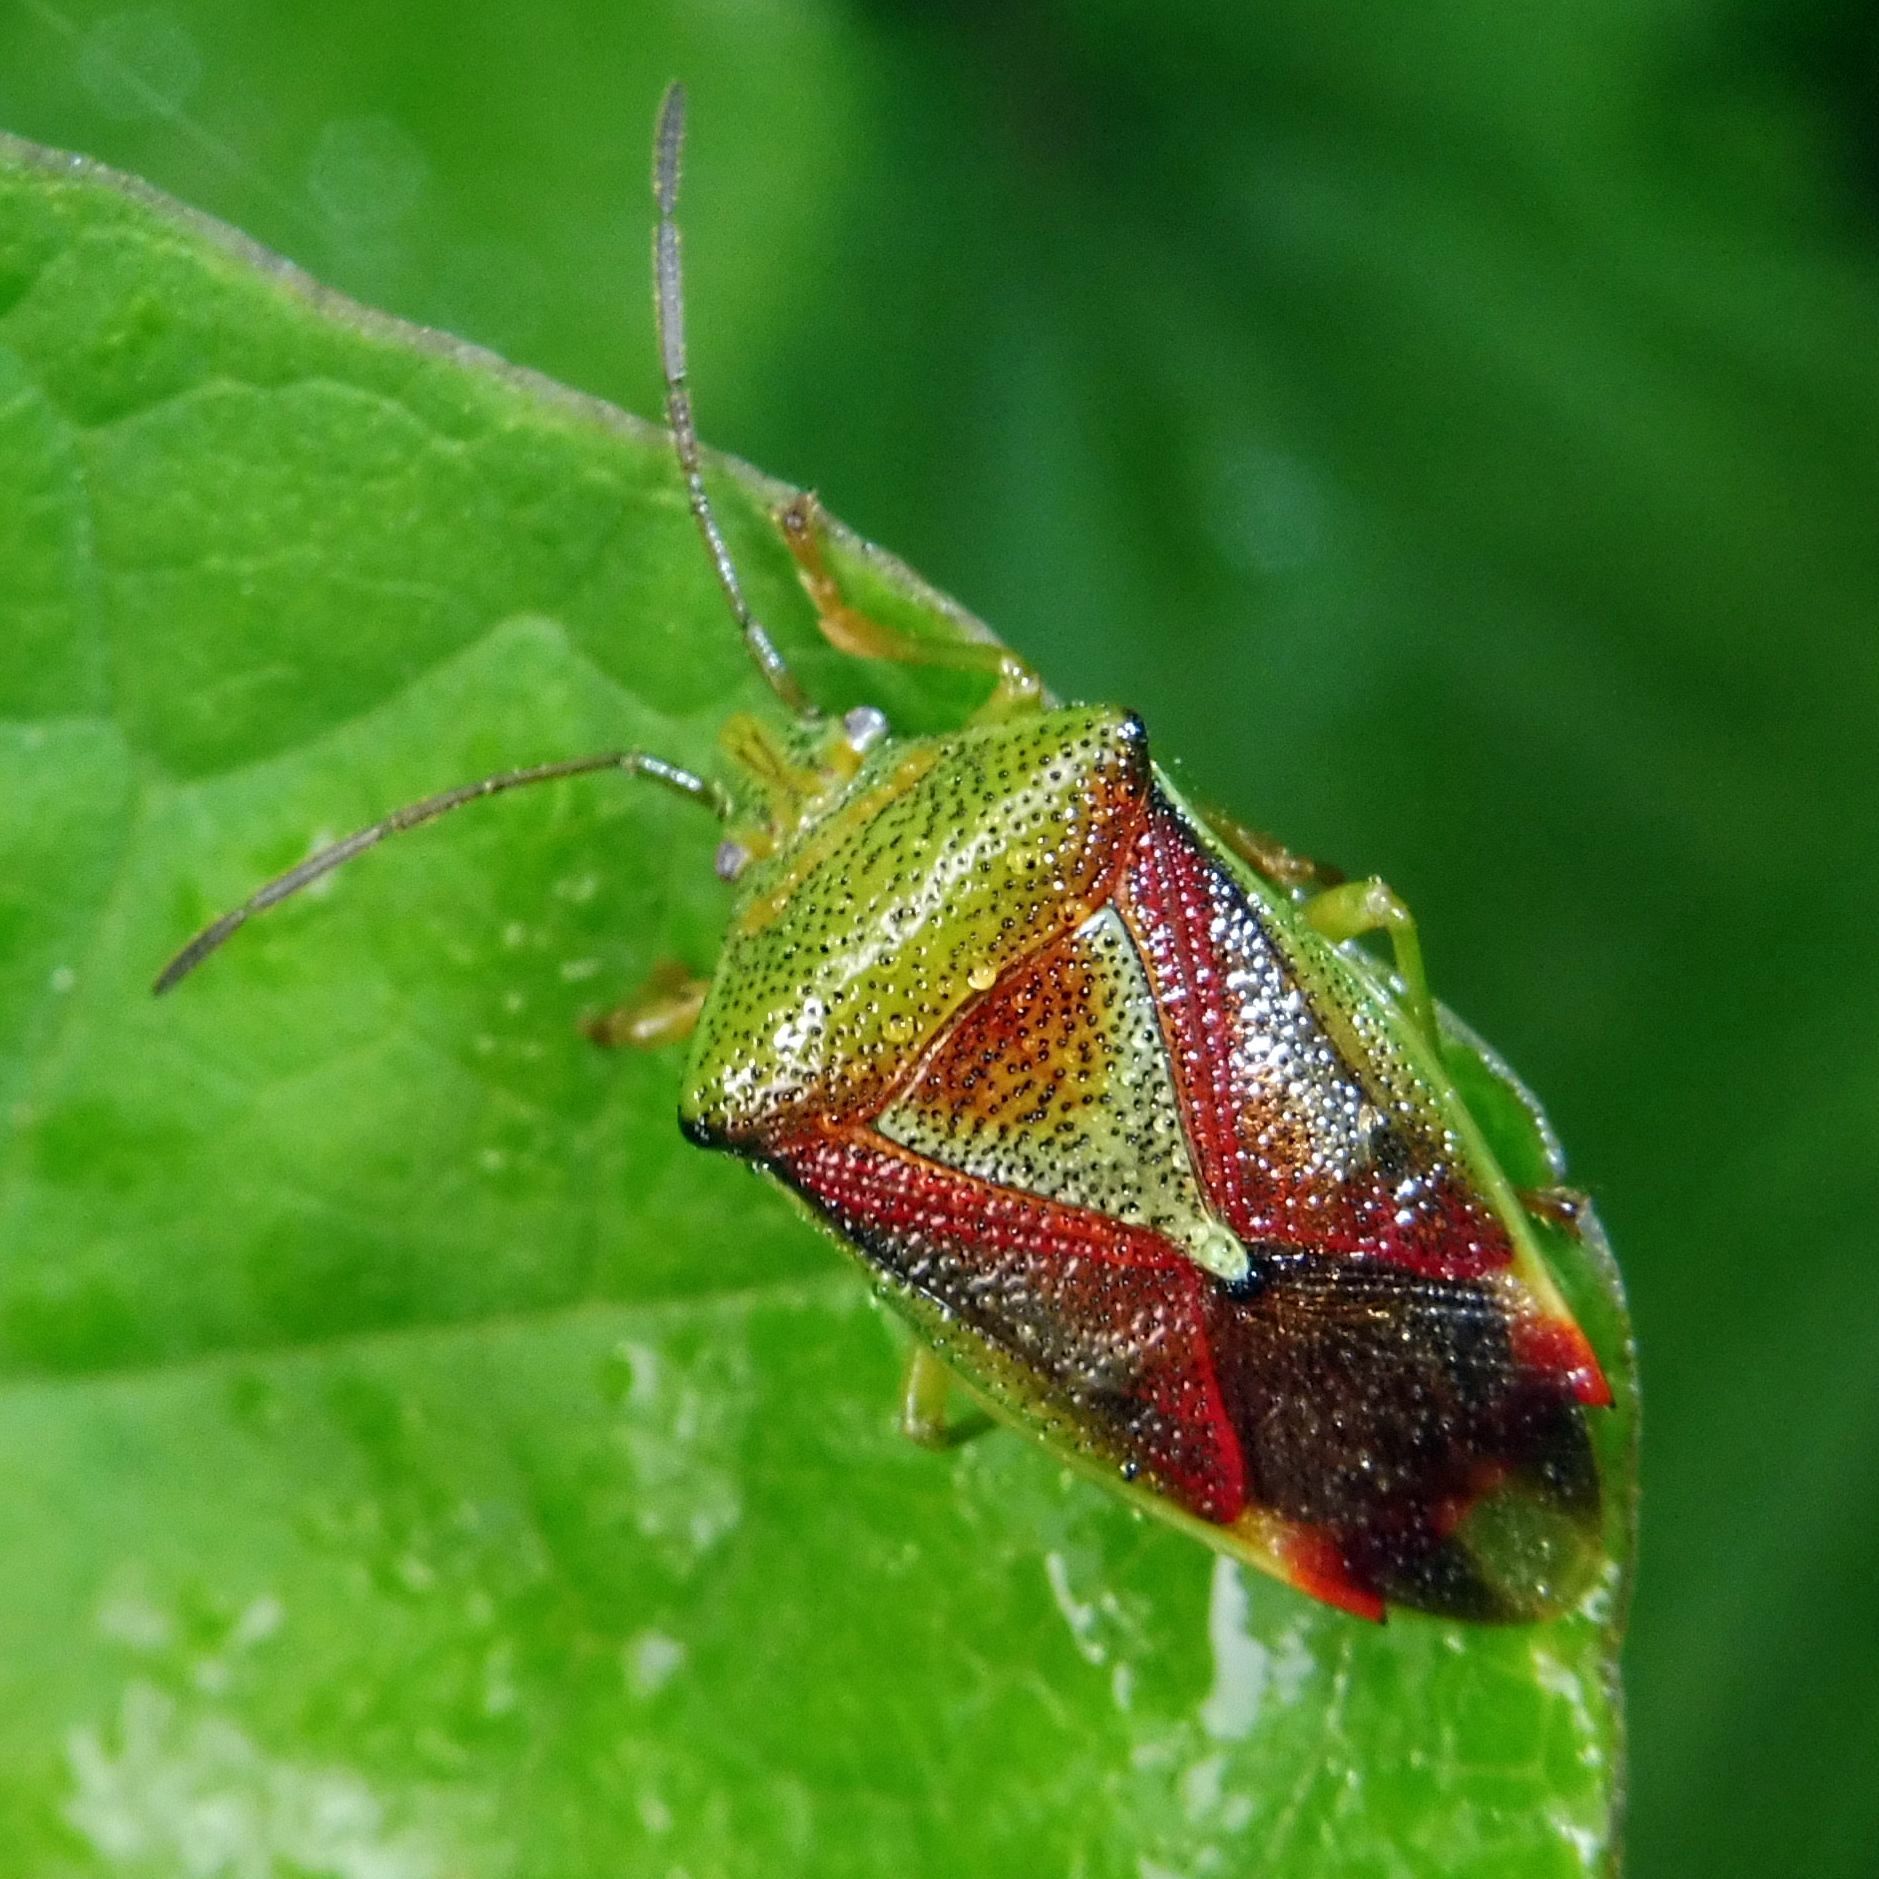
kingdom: Animalia
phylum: Arthropoda
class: Insecta
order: Hemiptera
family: Acanthosomatidae
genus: Elasmostethus
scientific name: Elasmostethus interstinctus
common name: Birch shieldbug
